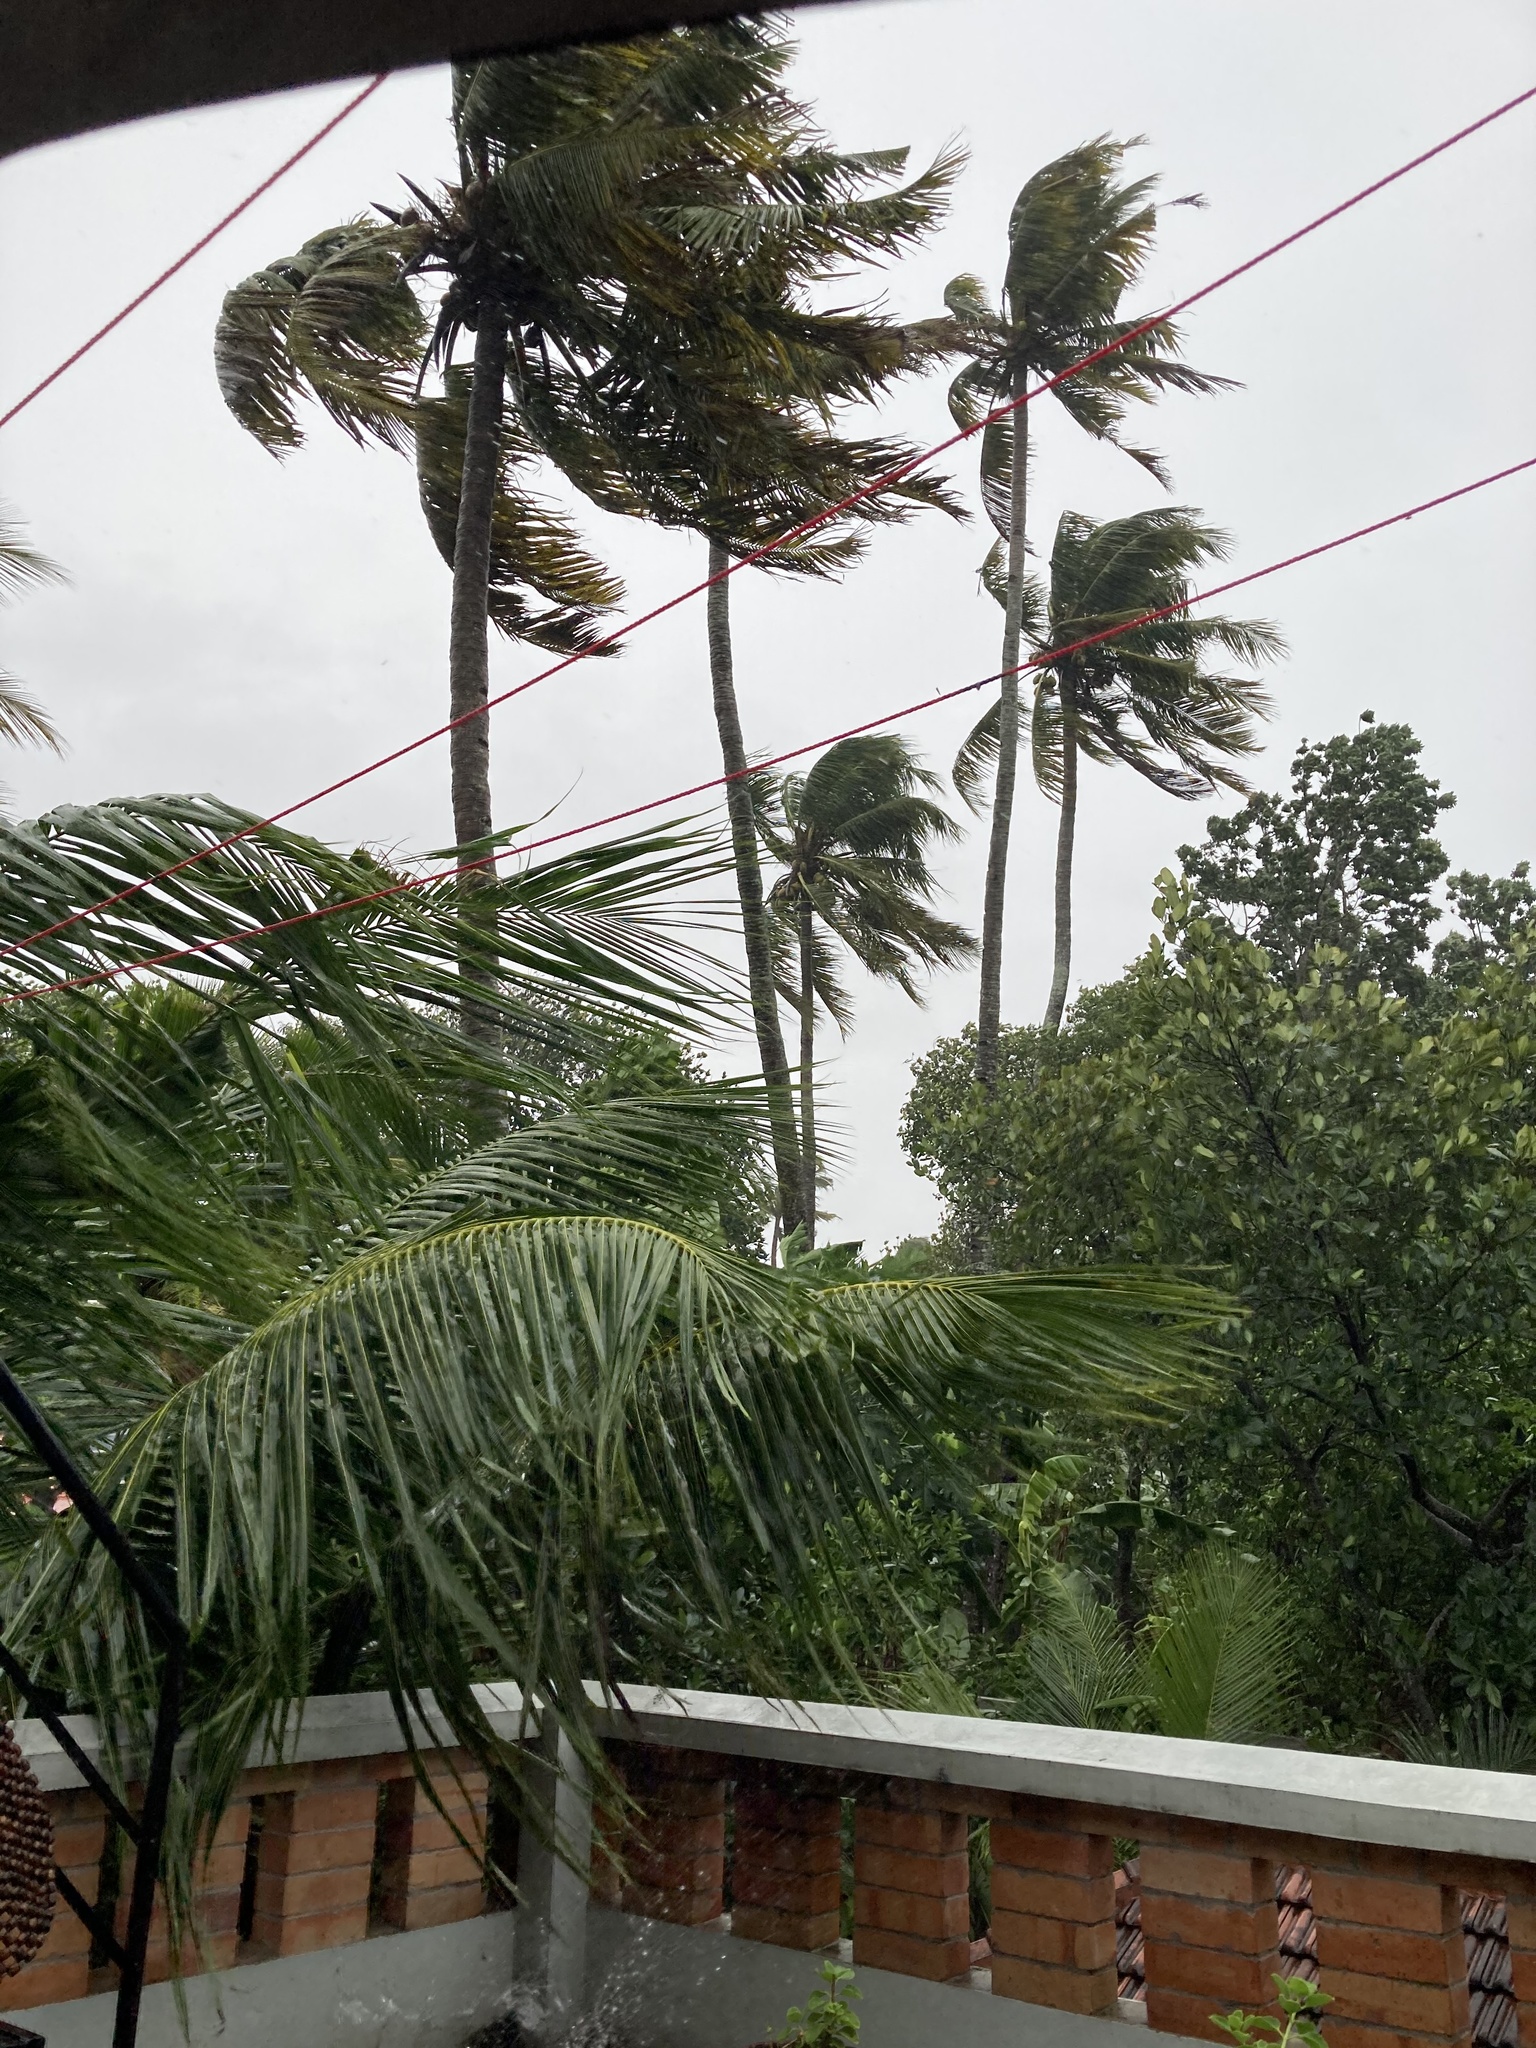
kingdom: Plantae
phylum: Tracheophyta
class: Liliopsida
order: Arecales
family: Arecaceae
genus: Cocos
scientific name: Cocos nucifera
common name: Coconut palm
